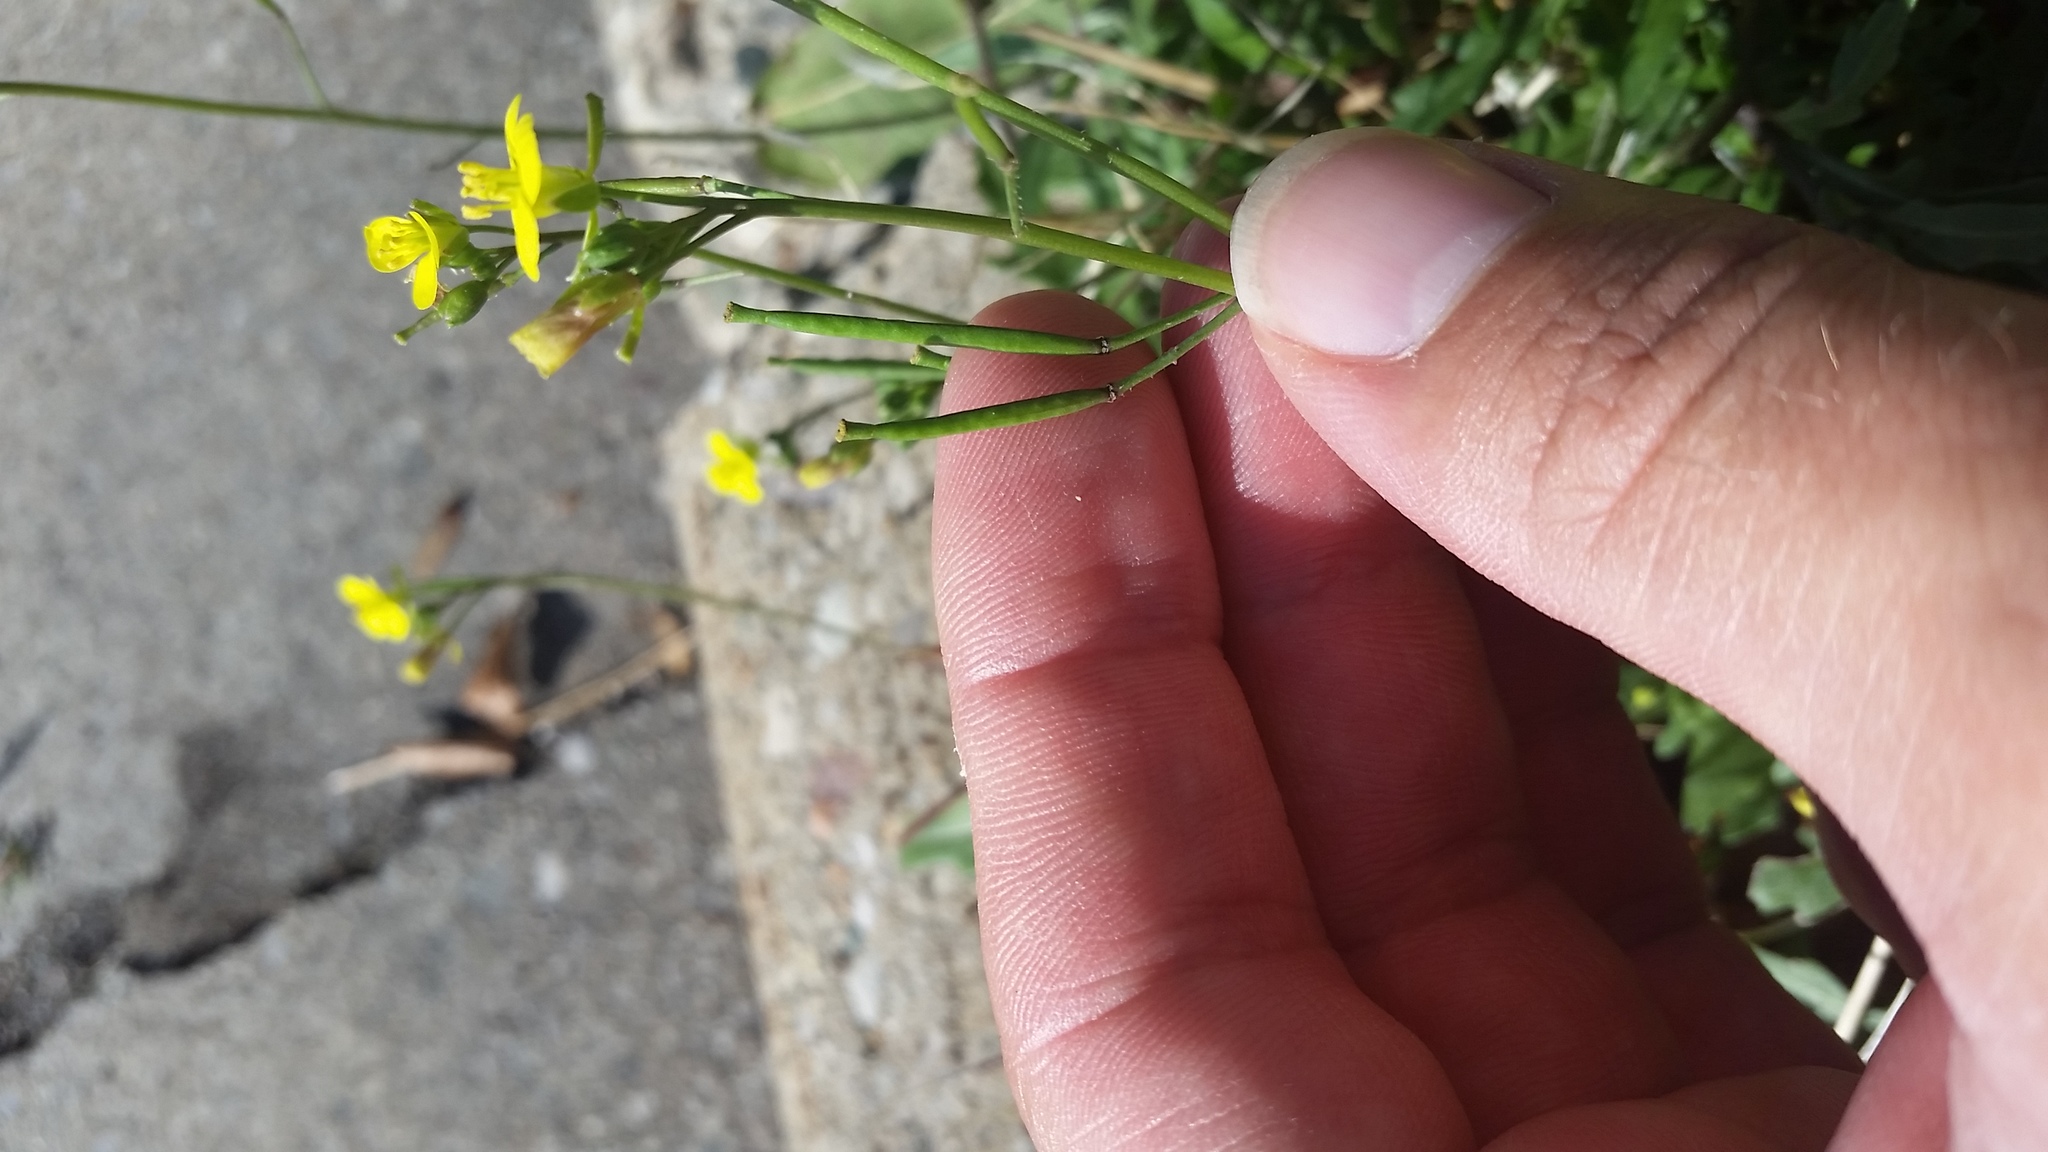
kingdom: Plantae
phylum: Tracheophyta
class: Magnoliopsida
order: Brassicales
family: Brassicaceae
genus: Diplotaxis
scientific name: Diplotaxis muralis
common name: Annual wall-rocket
